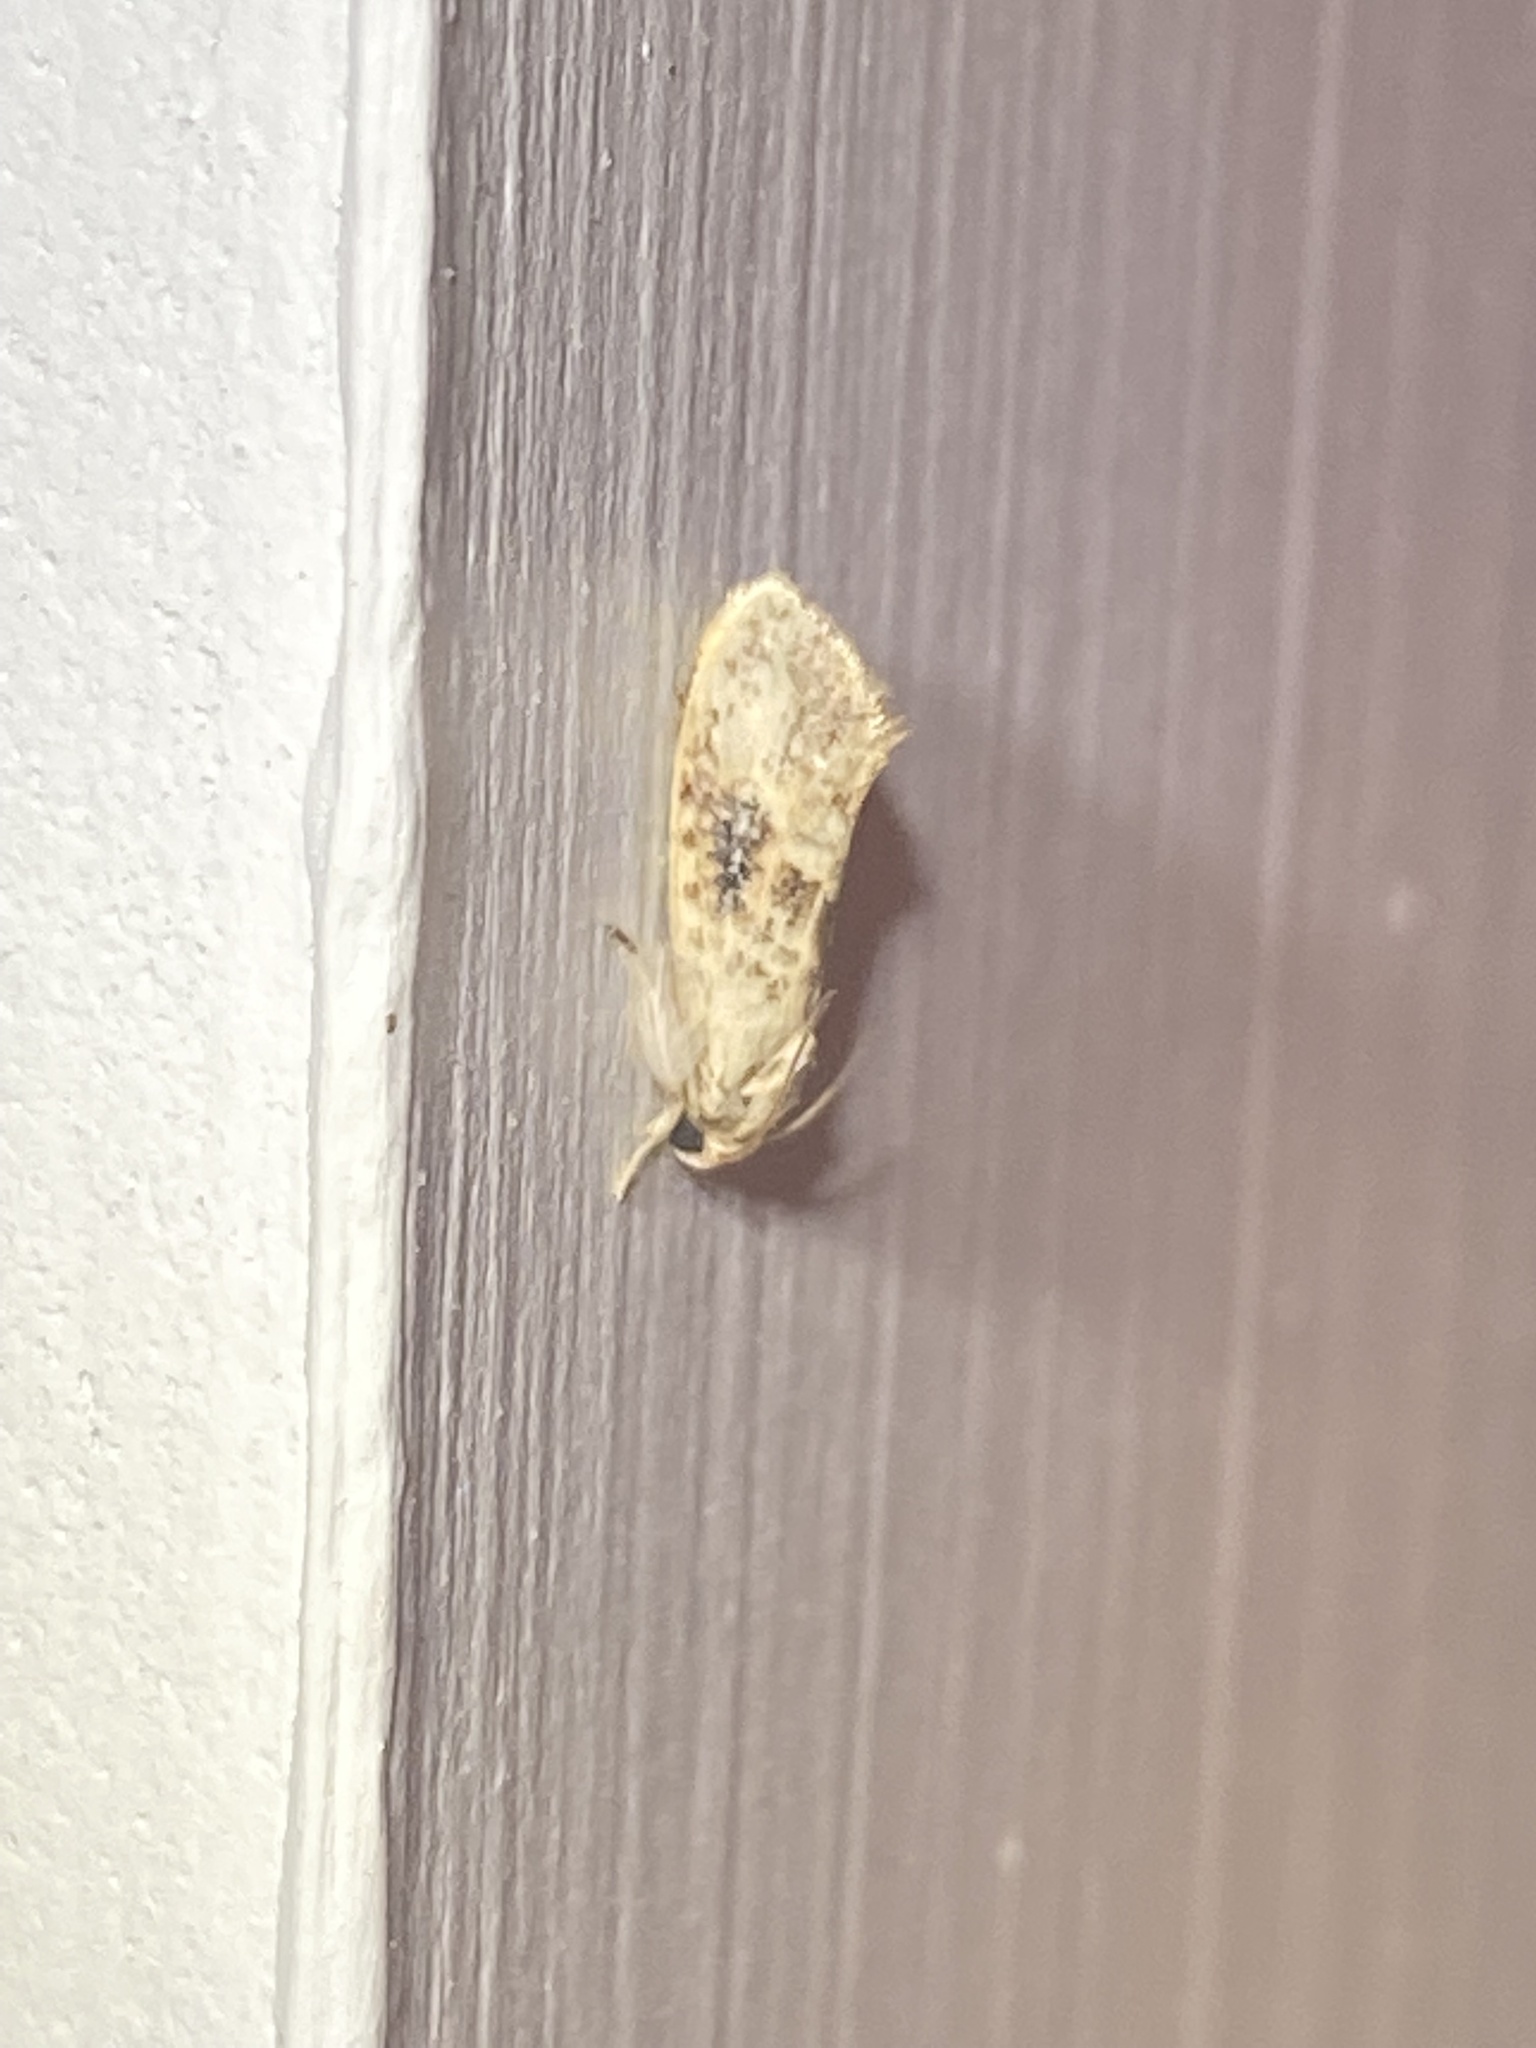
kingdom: Animalia
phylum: Arthropoda
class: Insecta
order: Lepidoptera
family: Tineidae
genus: Acrolophus
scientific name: Acrolophus mycetophagus
